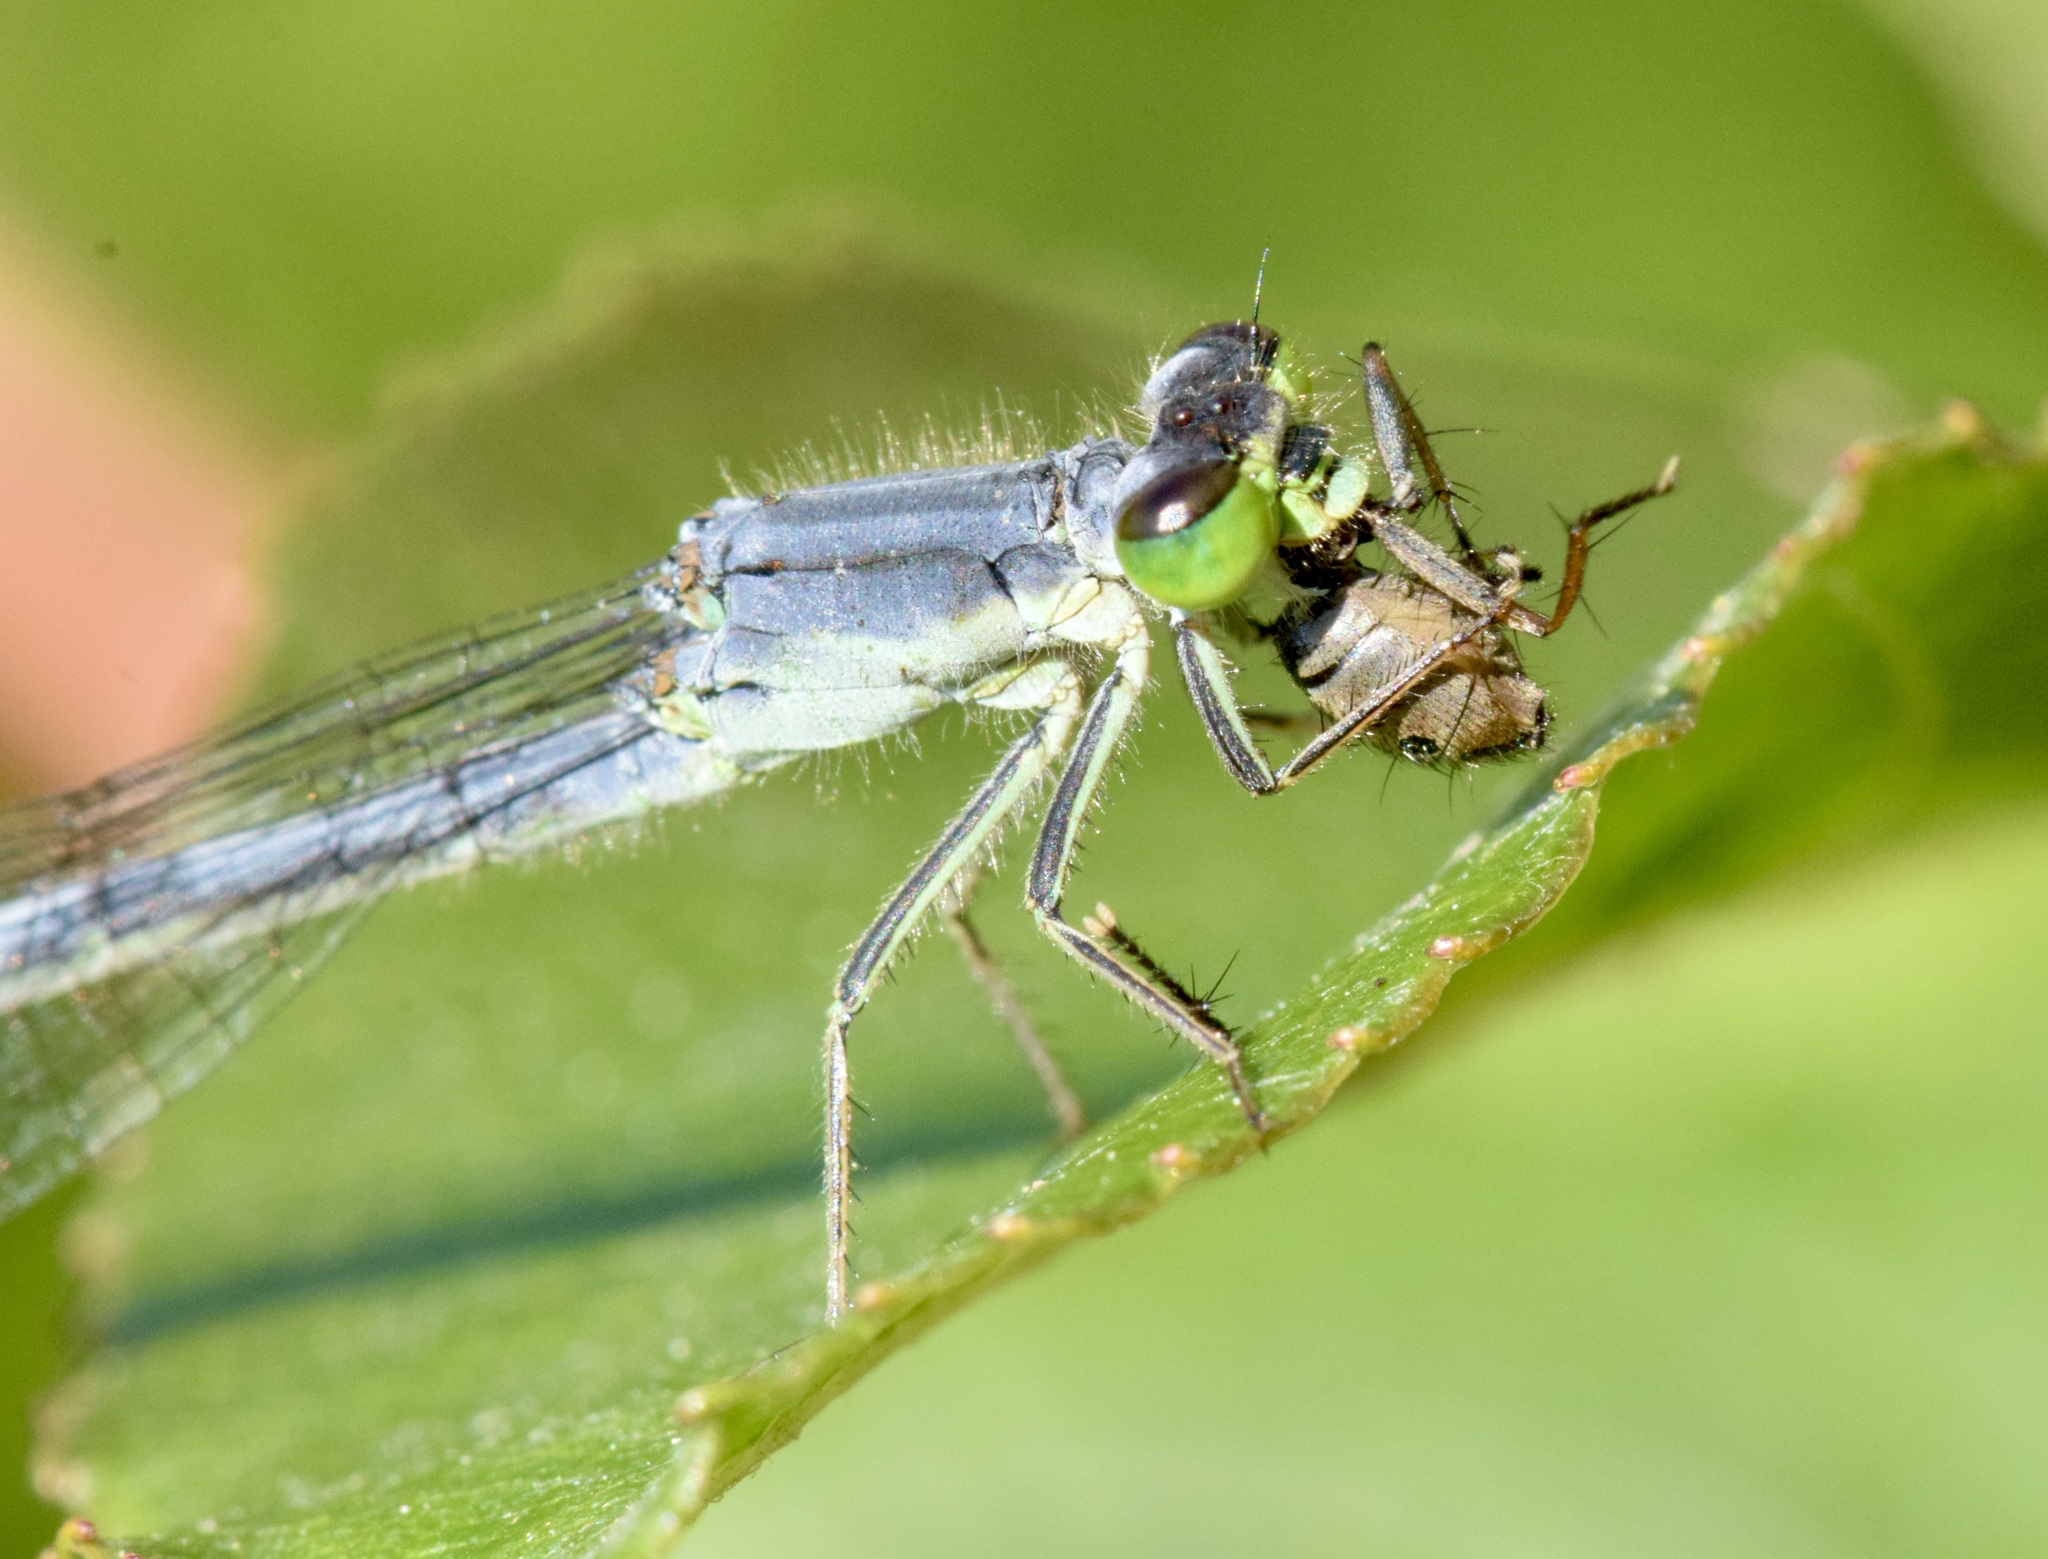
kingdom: Animalia
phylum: Arthropoda
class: Insecta
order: Odonata
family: Coenagrionidae
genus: Ischnura
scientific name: Ischnura verticalis
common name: Eastern forktail
